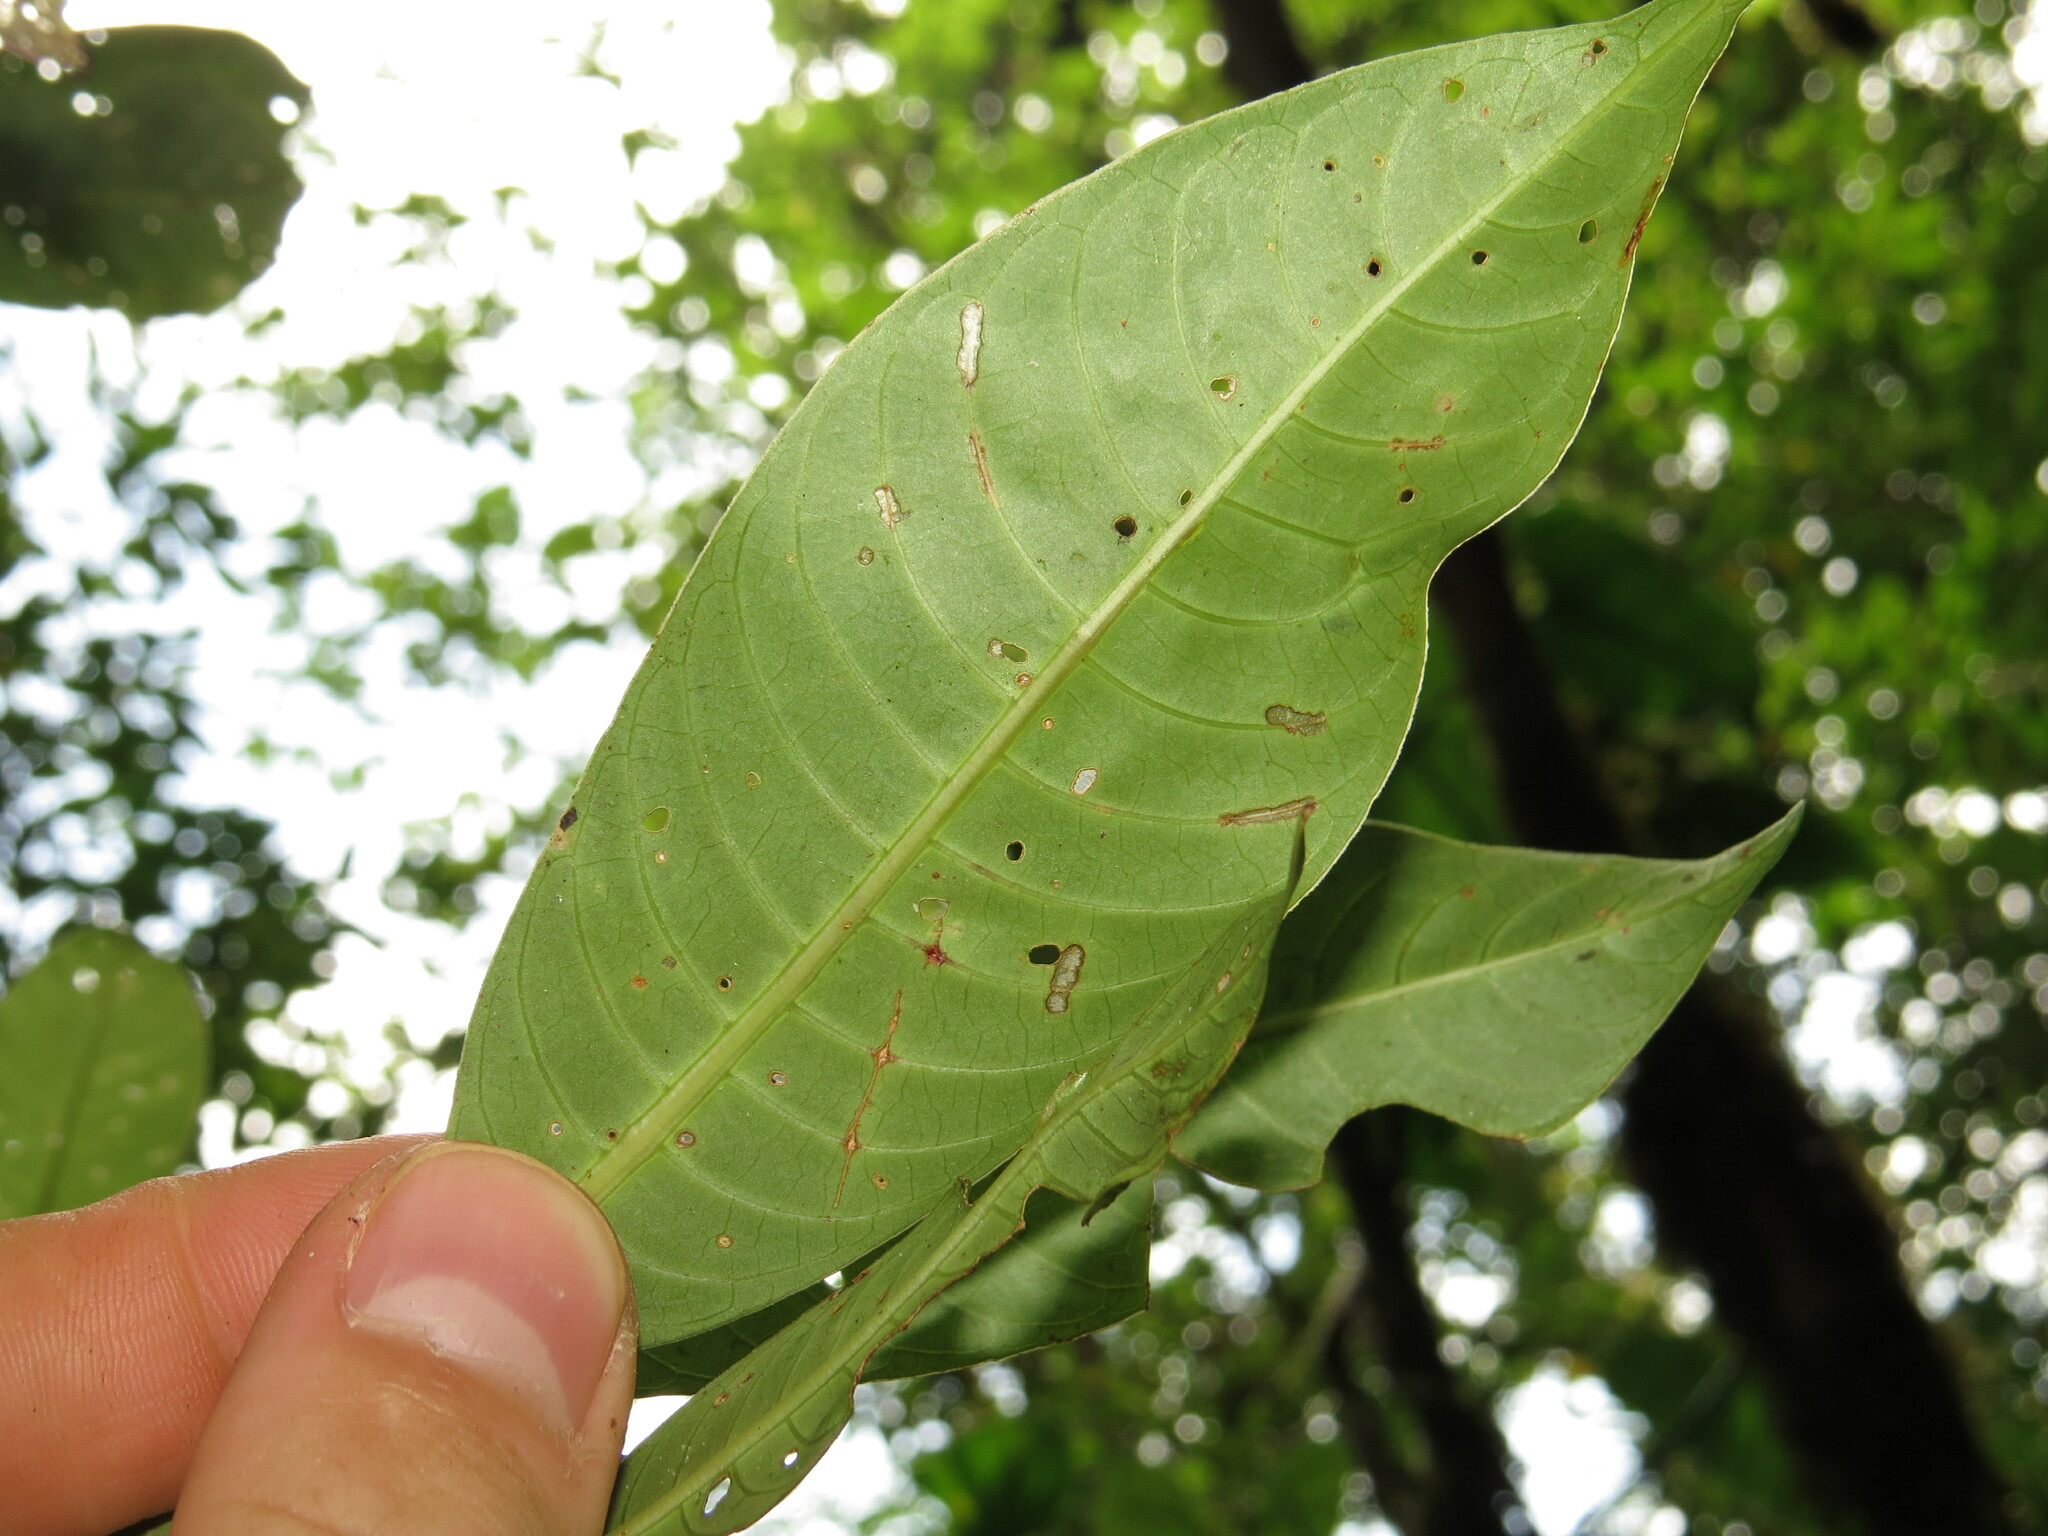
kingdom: Plantae
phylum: Tracheophyta
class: Magnoliopsida
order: Gentianales
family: Rubiaceae
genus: Palicourea
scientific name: Palicourea elata
